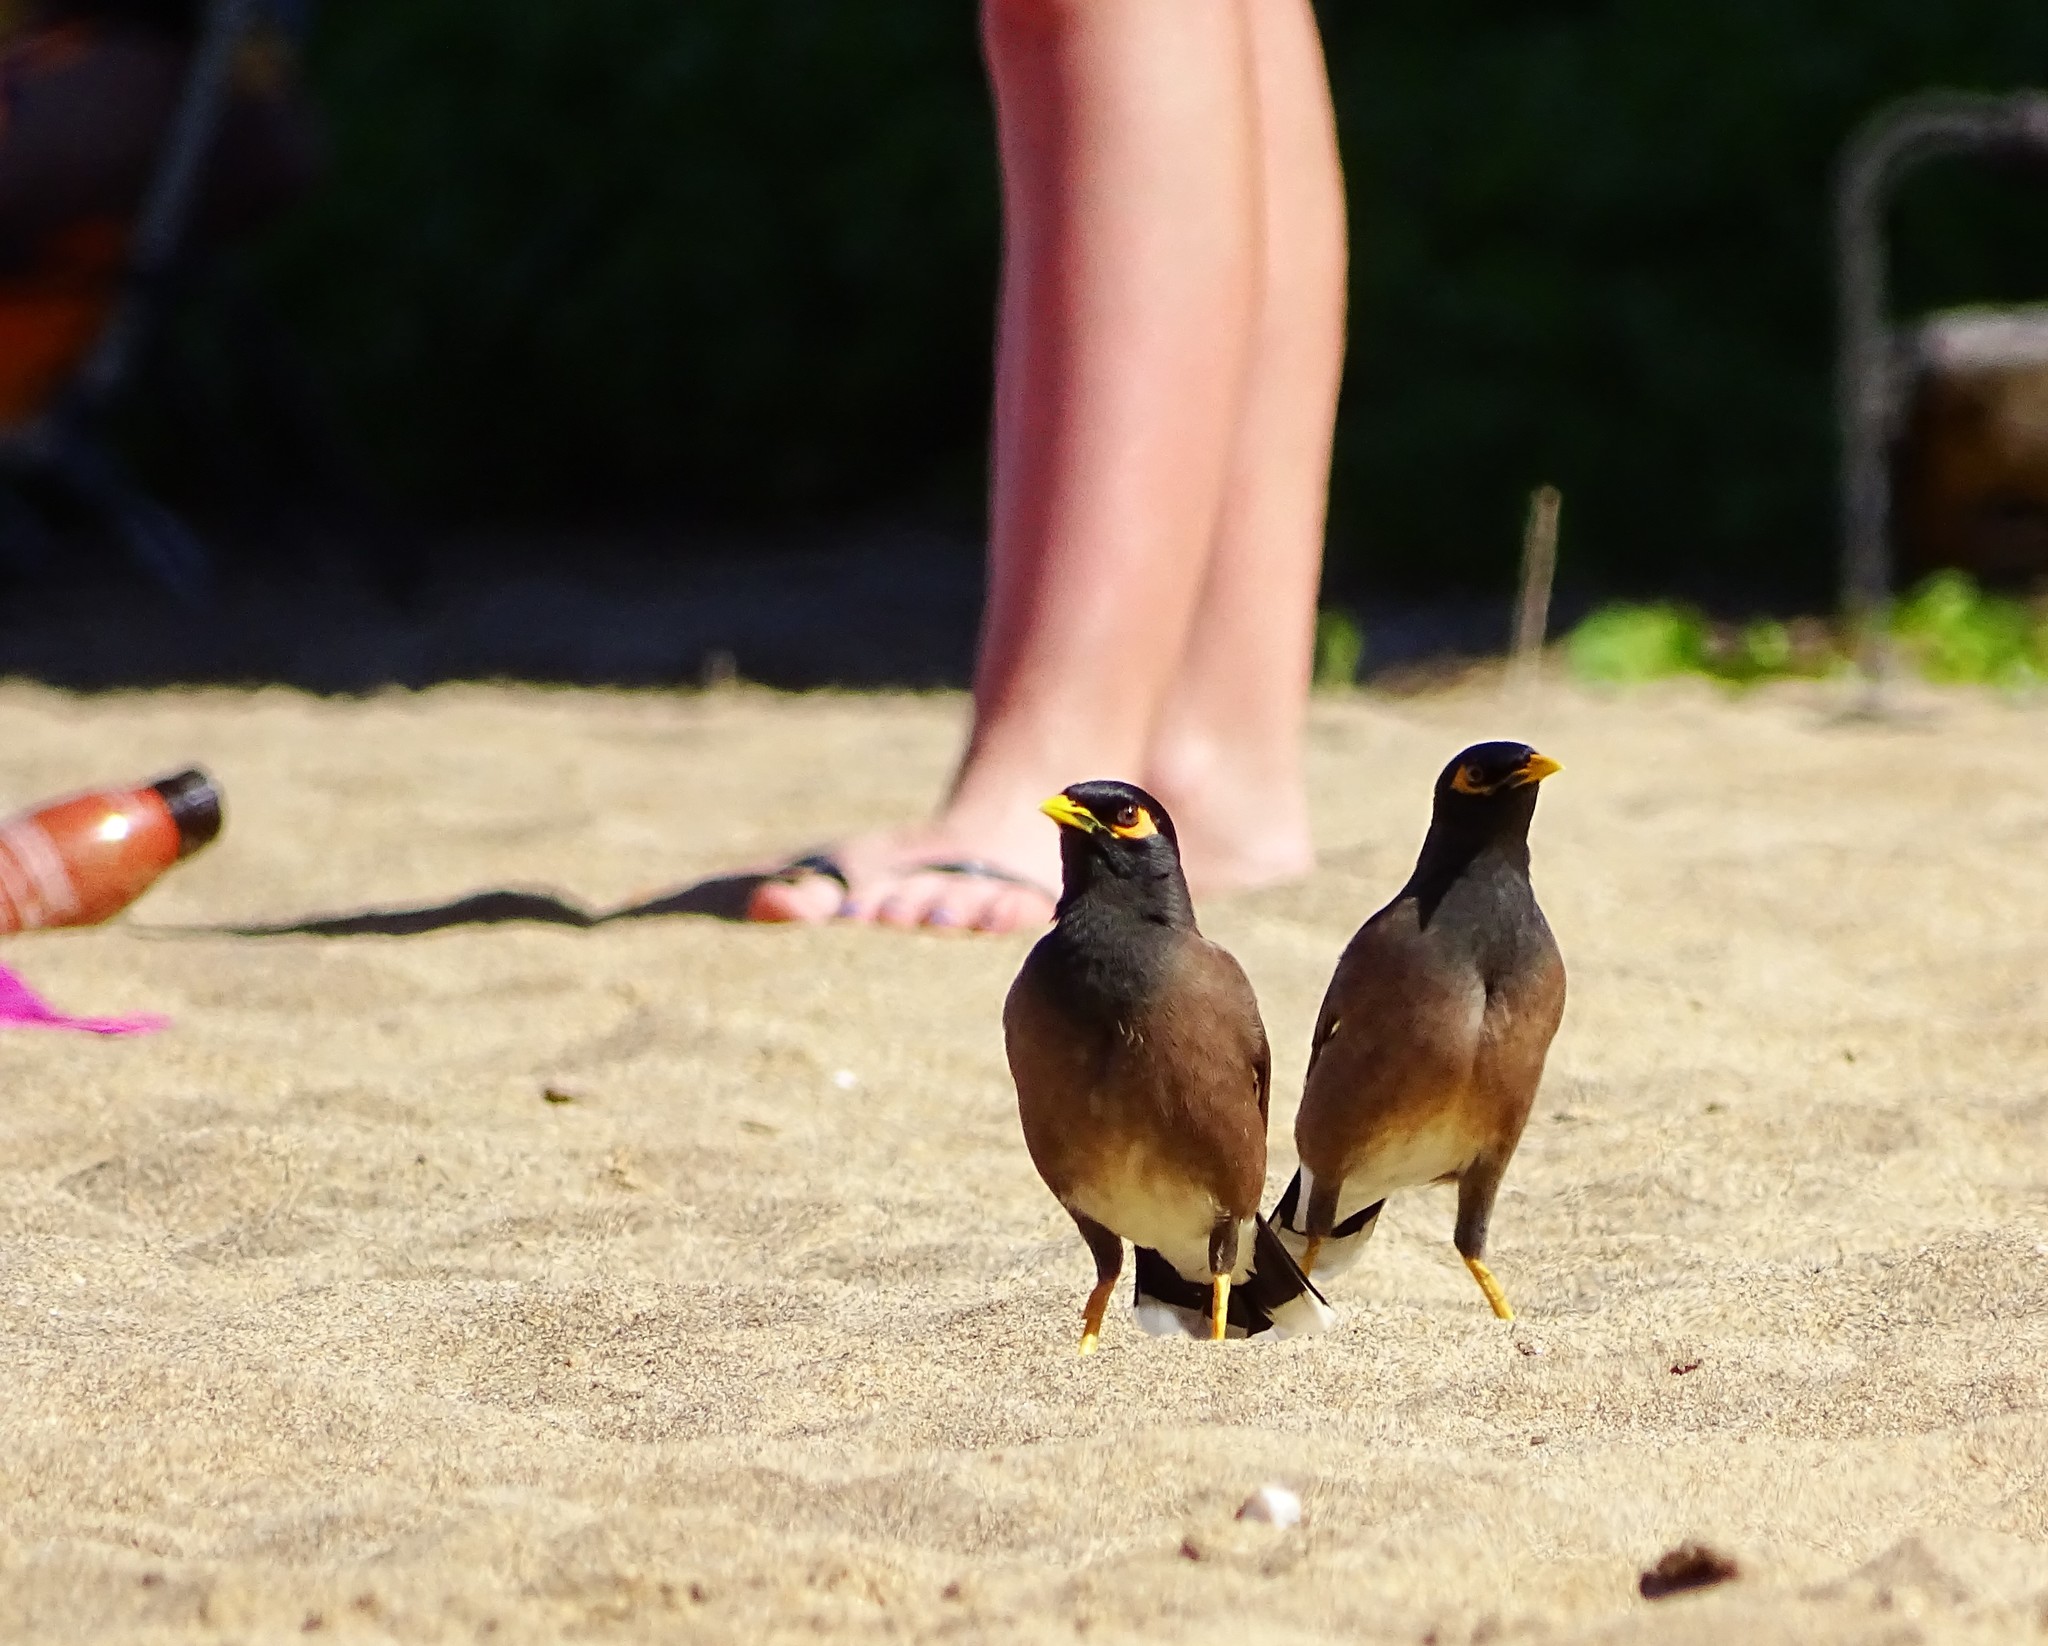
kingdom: Animalia
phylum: Chordata
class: Aves
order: Passeriformes
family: Sturnidae
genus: Acridotheres
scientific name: Acridotheres tristis
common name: Common myna
